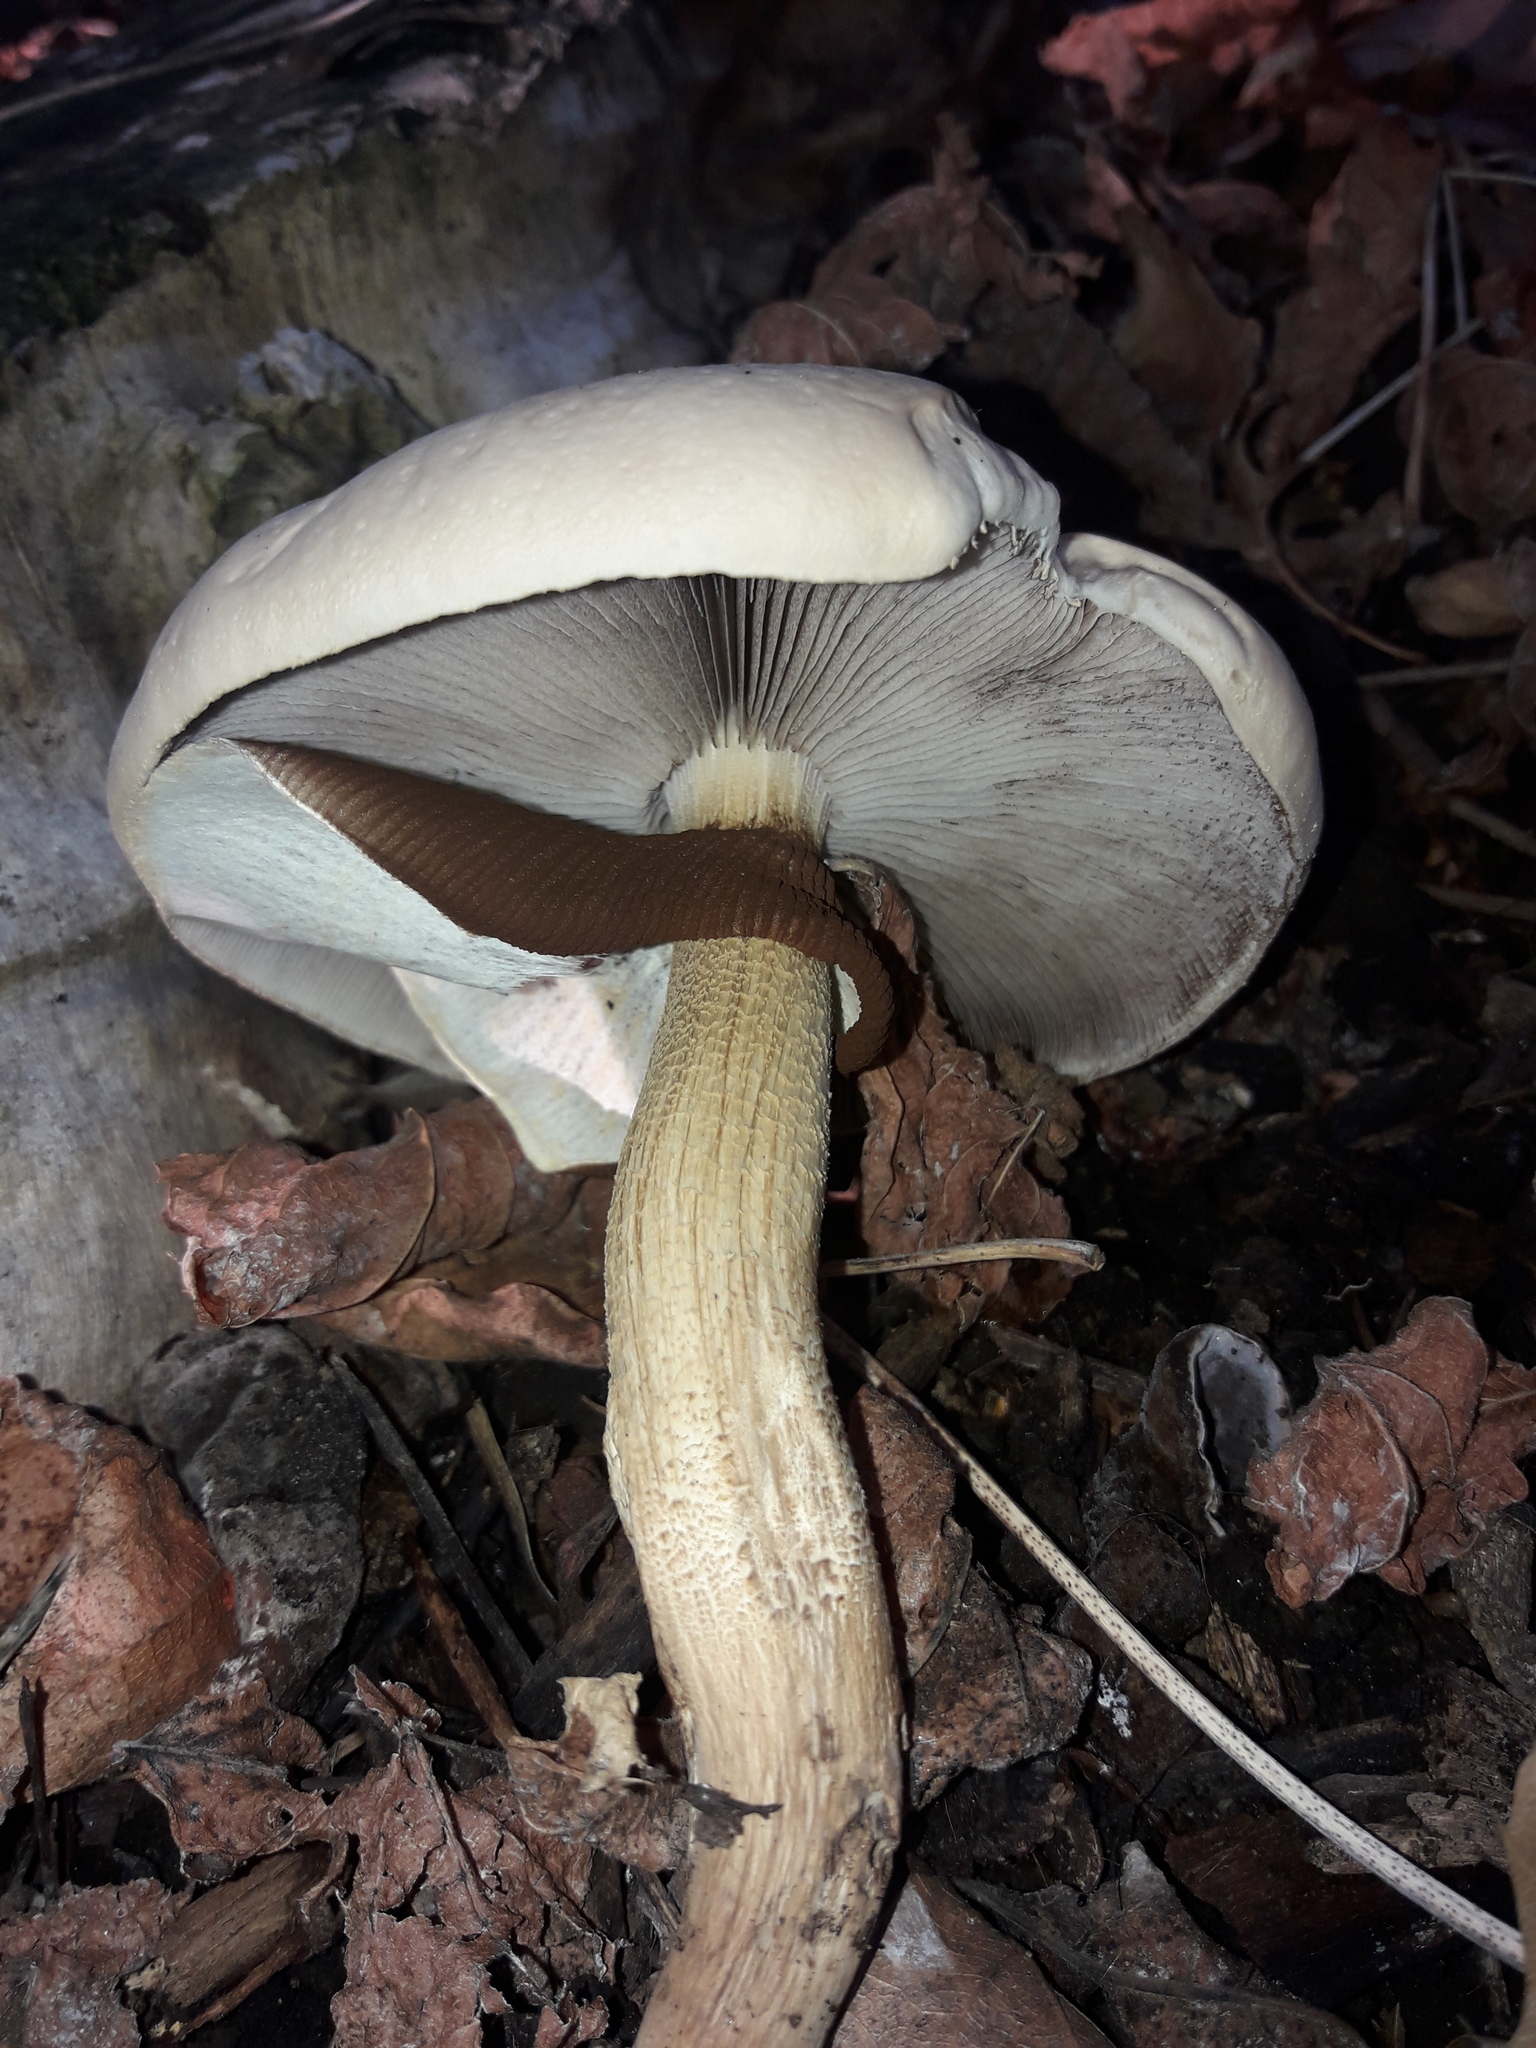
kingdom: Fungi
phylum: Basidiomycota
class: Agaricomycetes
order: Agaricales
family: Tubariaceae
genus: Cyclocybe
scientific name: Cyclocybe parasitica
